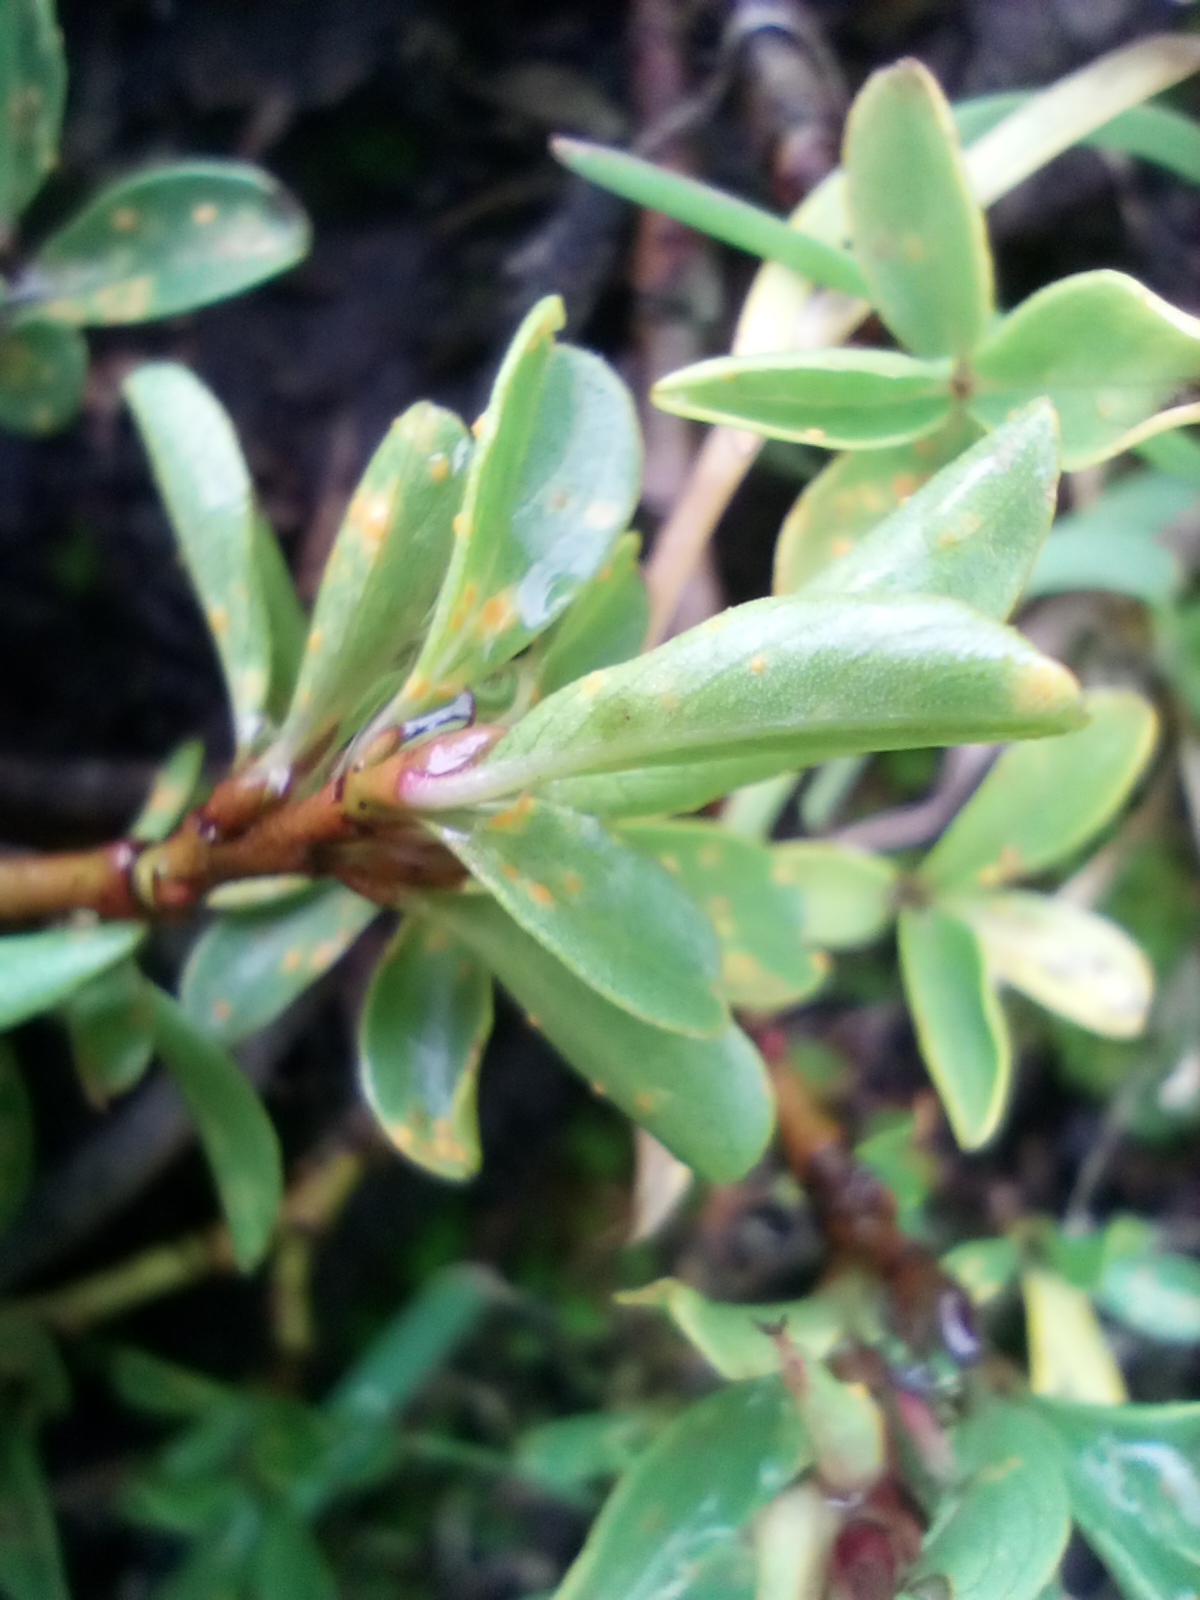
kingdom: Plantae
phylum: Tracheophyta
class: Magnoliopsida
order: Malpighiales
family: Salicaceae
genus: Salix
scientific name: Salix retusa
